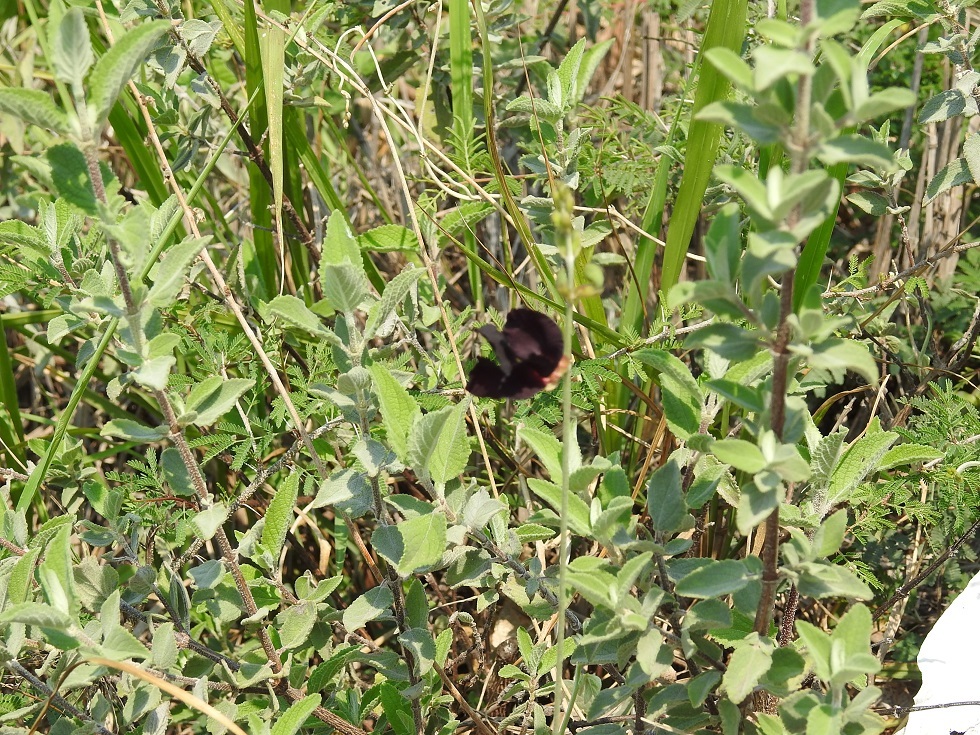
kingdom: Plantae
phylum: Tracheophyta
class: Magnoliopsida
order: Fabales
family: Fabaceae
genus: Macroptilium
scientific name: Macroptilium atropurpureum
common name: Purple bushbean
